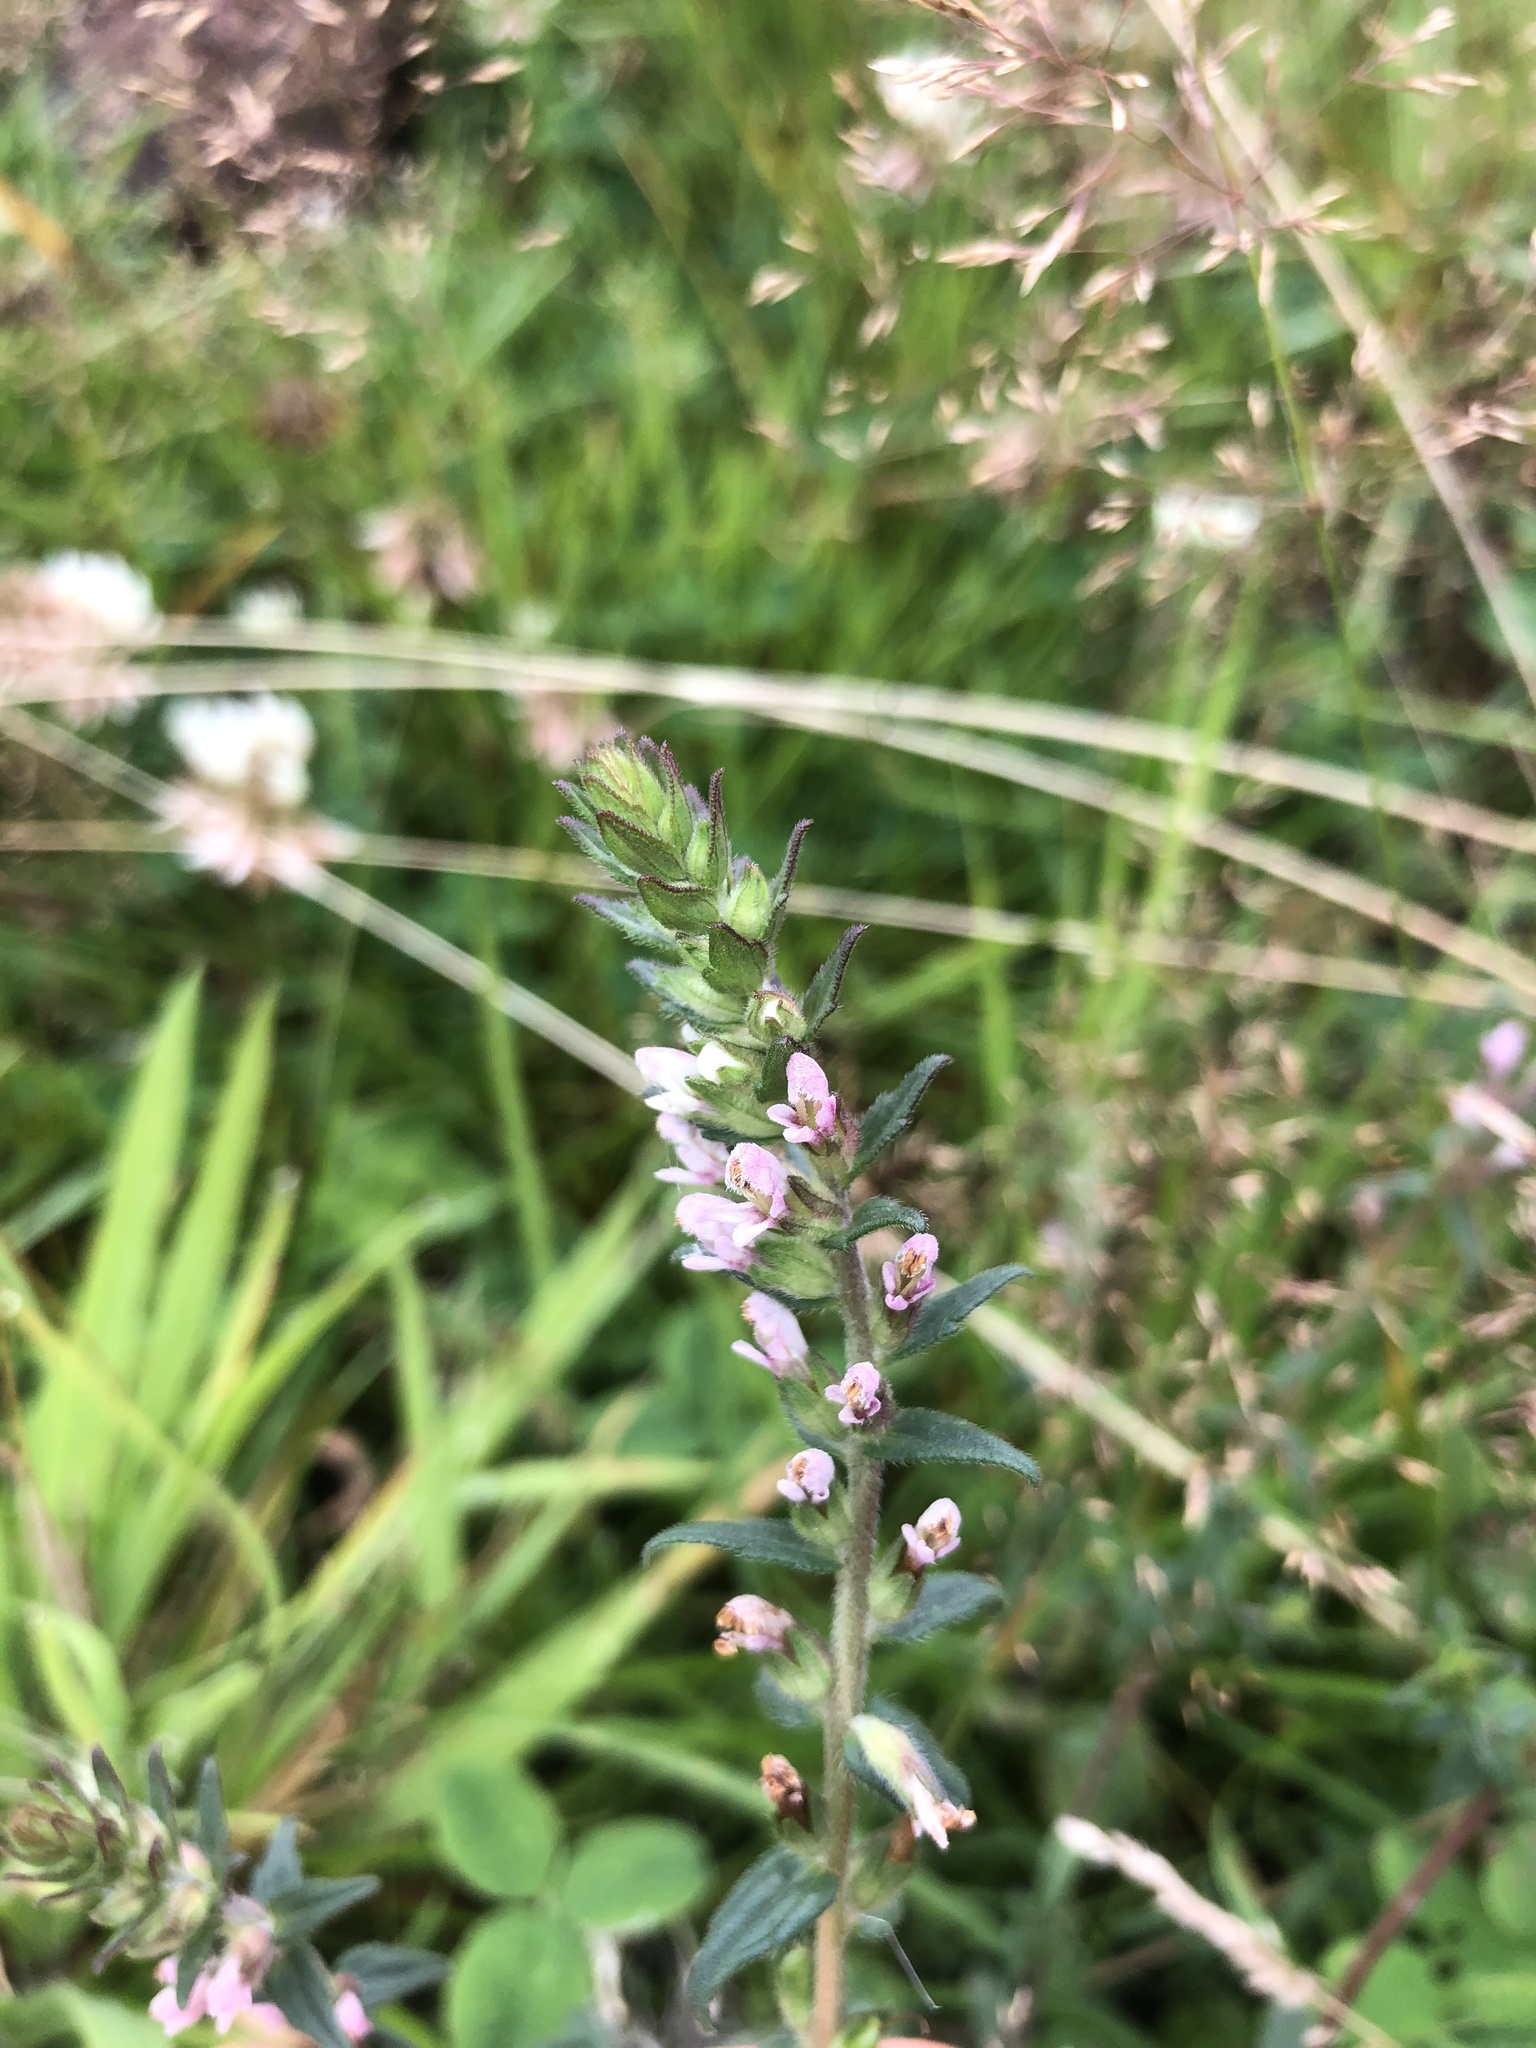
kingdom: Plantae
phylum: Tracheophyta
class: Magnoliopsida
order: Lamiales
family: Orobanchaceae
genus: Odontites
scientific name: Odontites vernus
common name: Red bartsia
